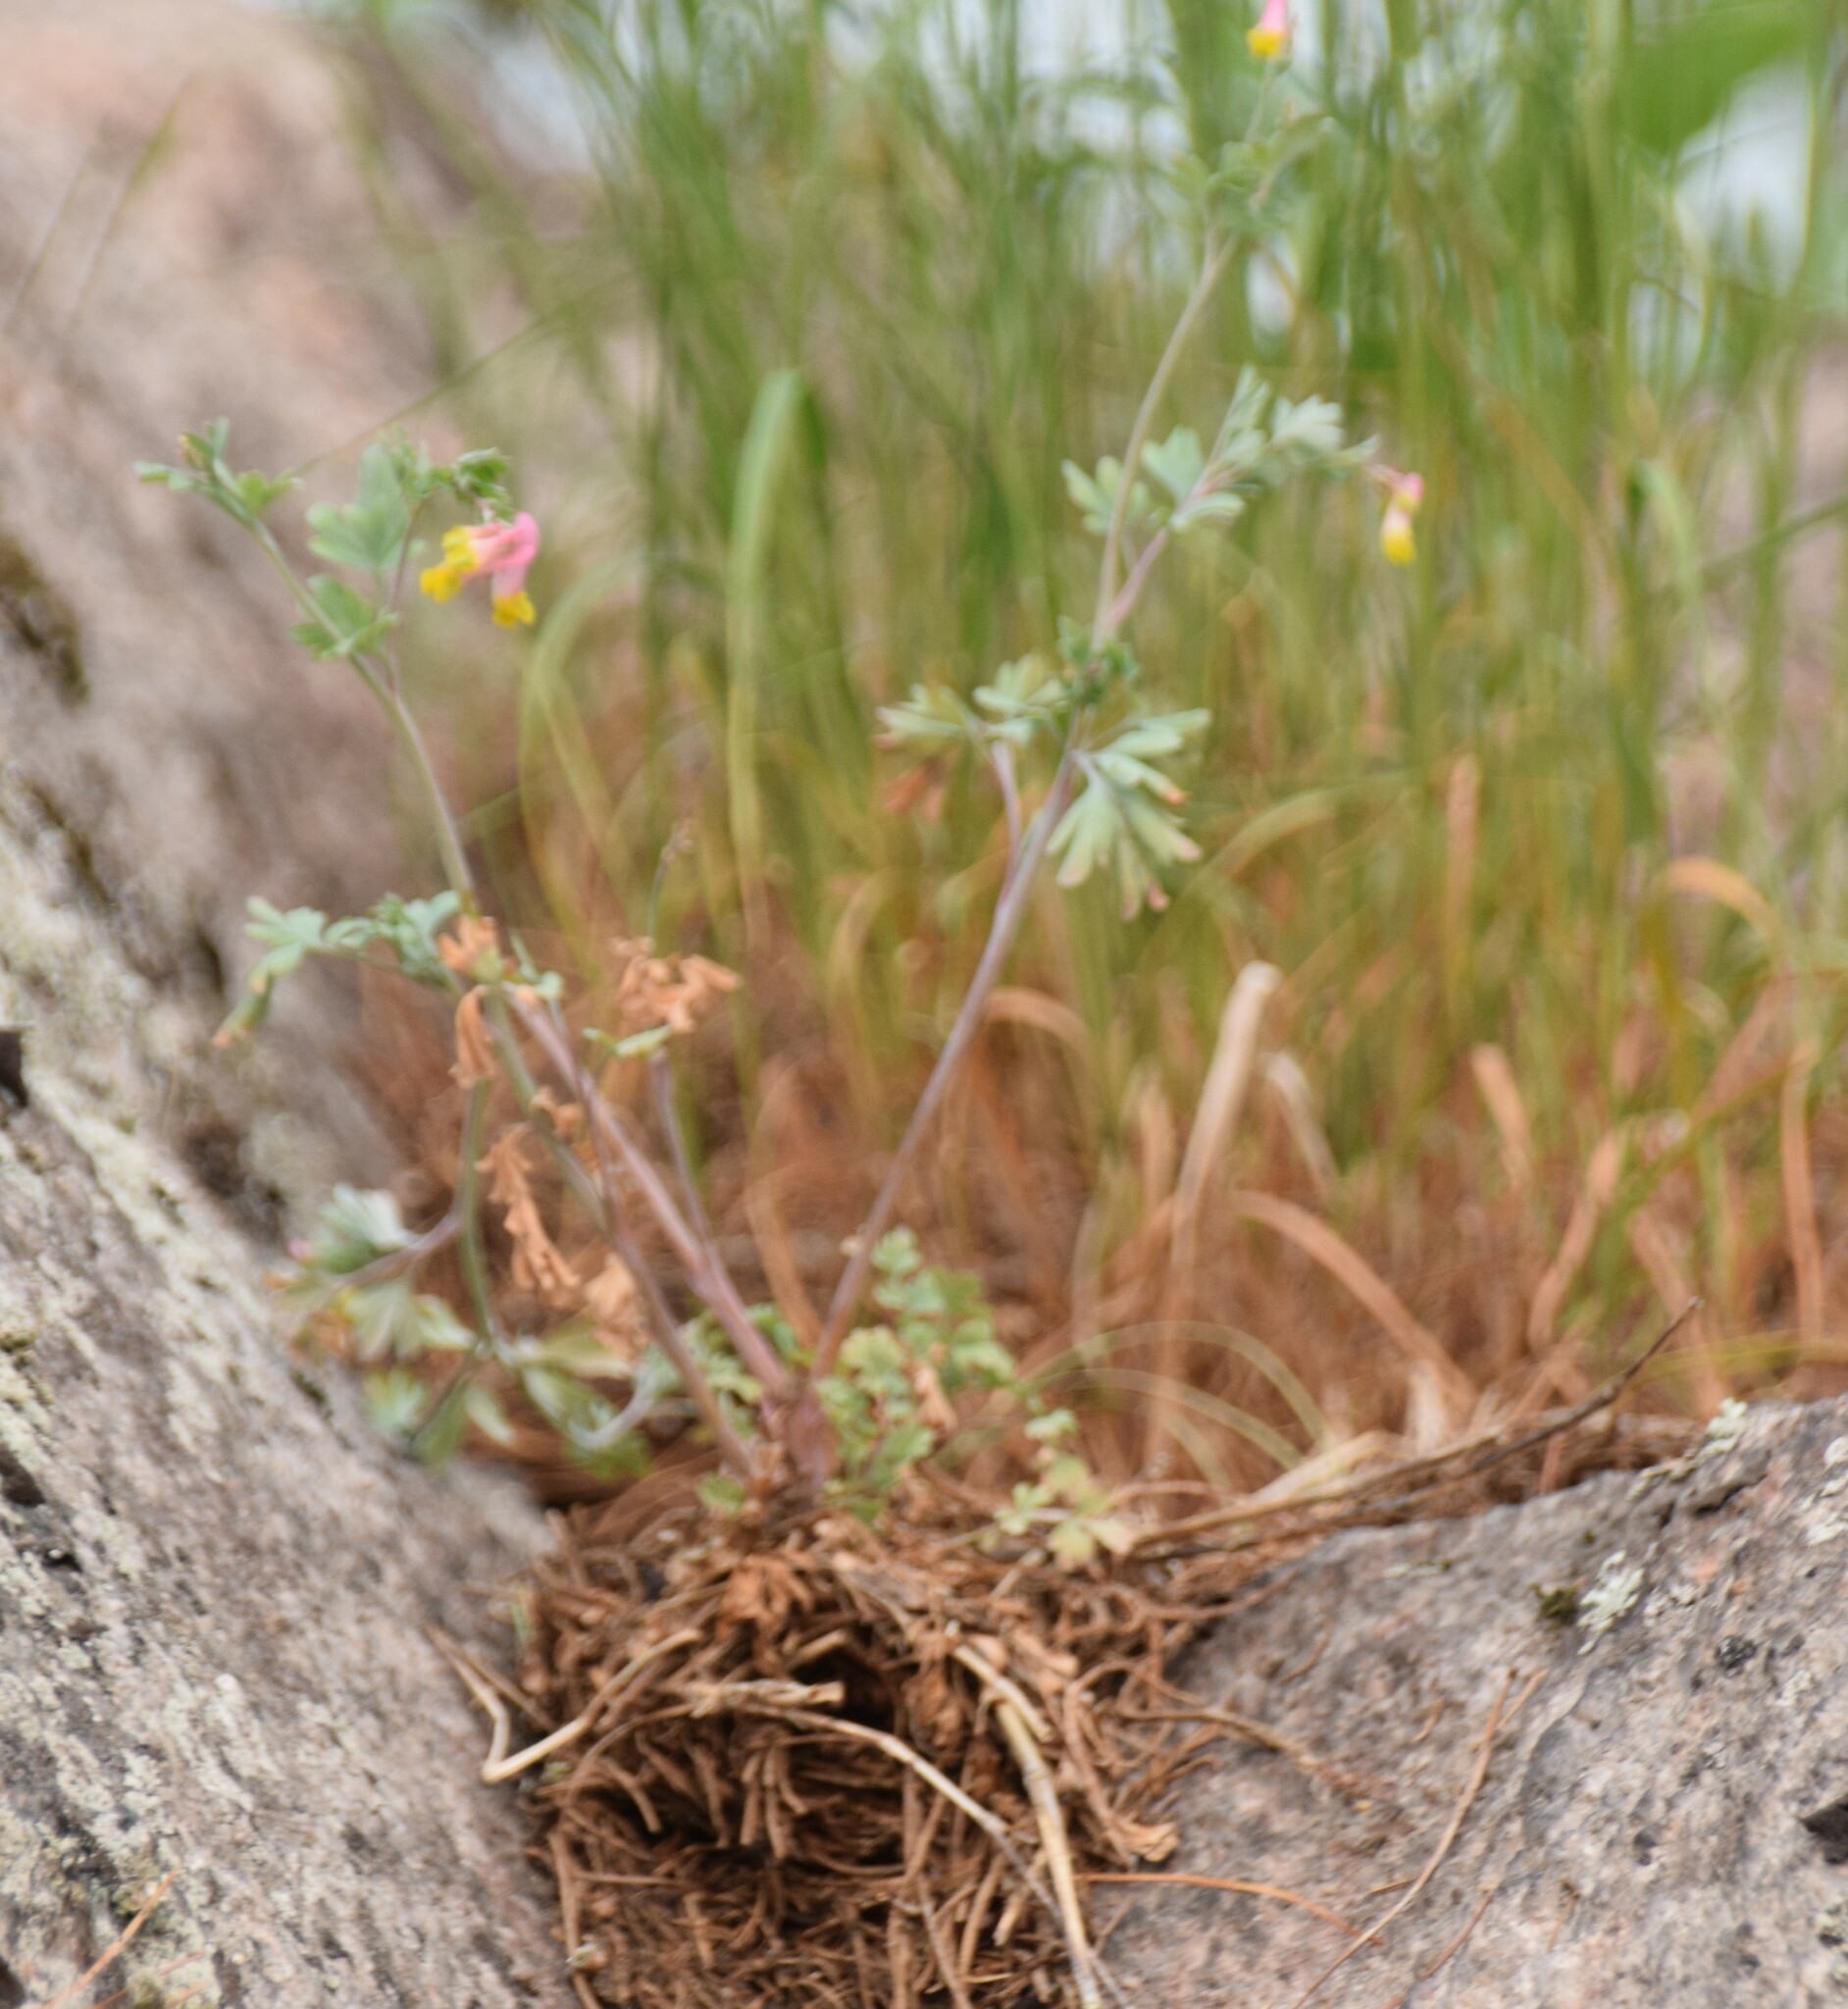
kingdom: Plantae
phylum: Tracheophyta
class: Magnoliopsida
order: Ranunculales
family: Papaveraceae
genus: Capnoides
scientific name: Capnoides sempervirens
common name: Rock harlequin
